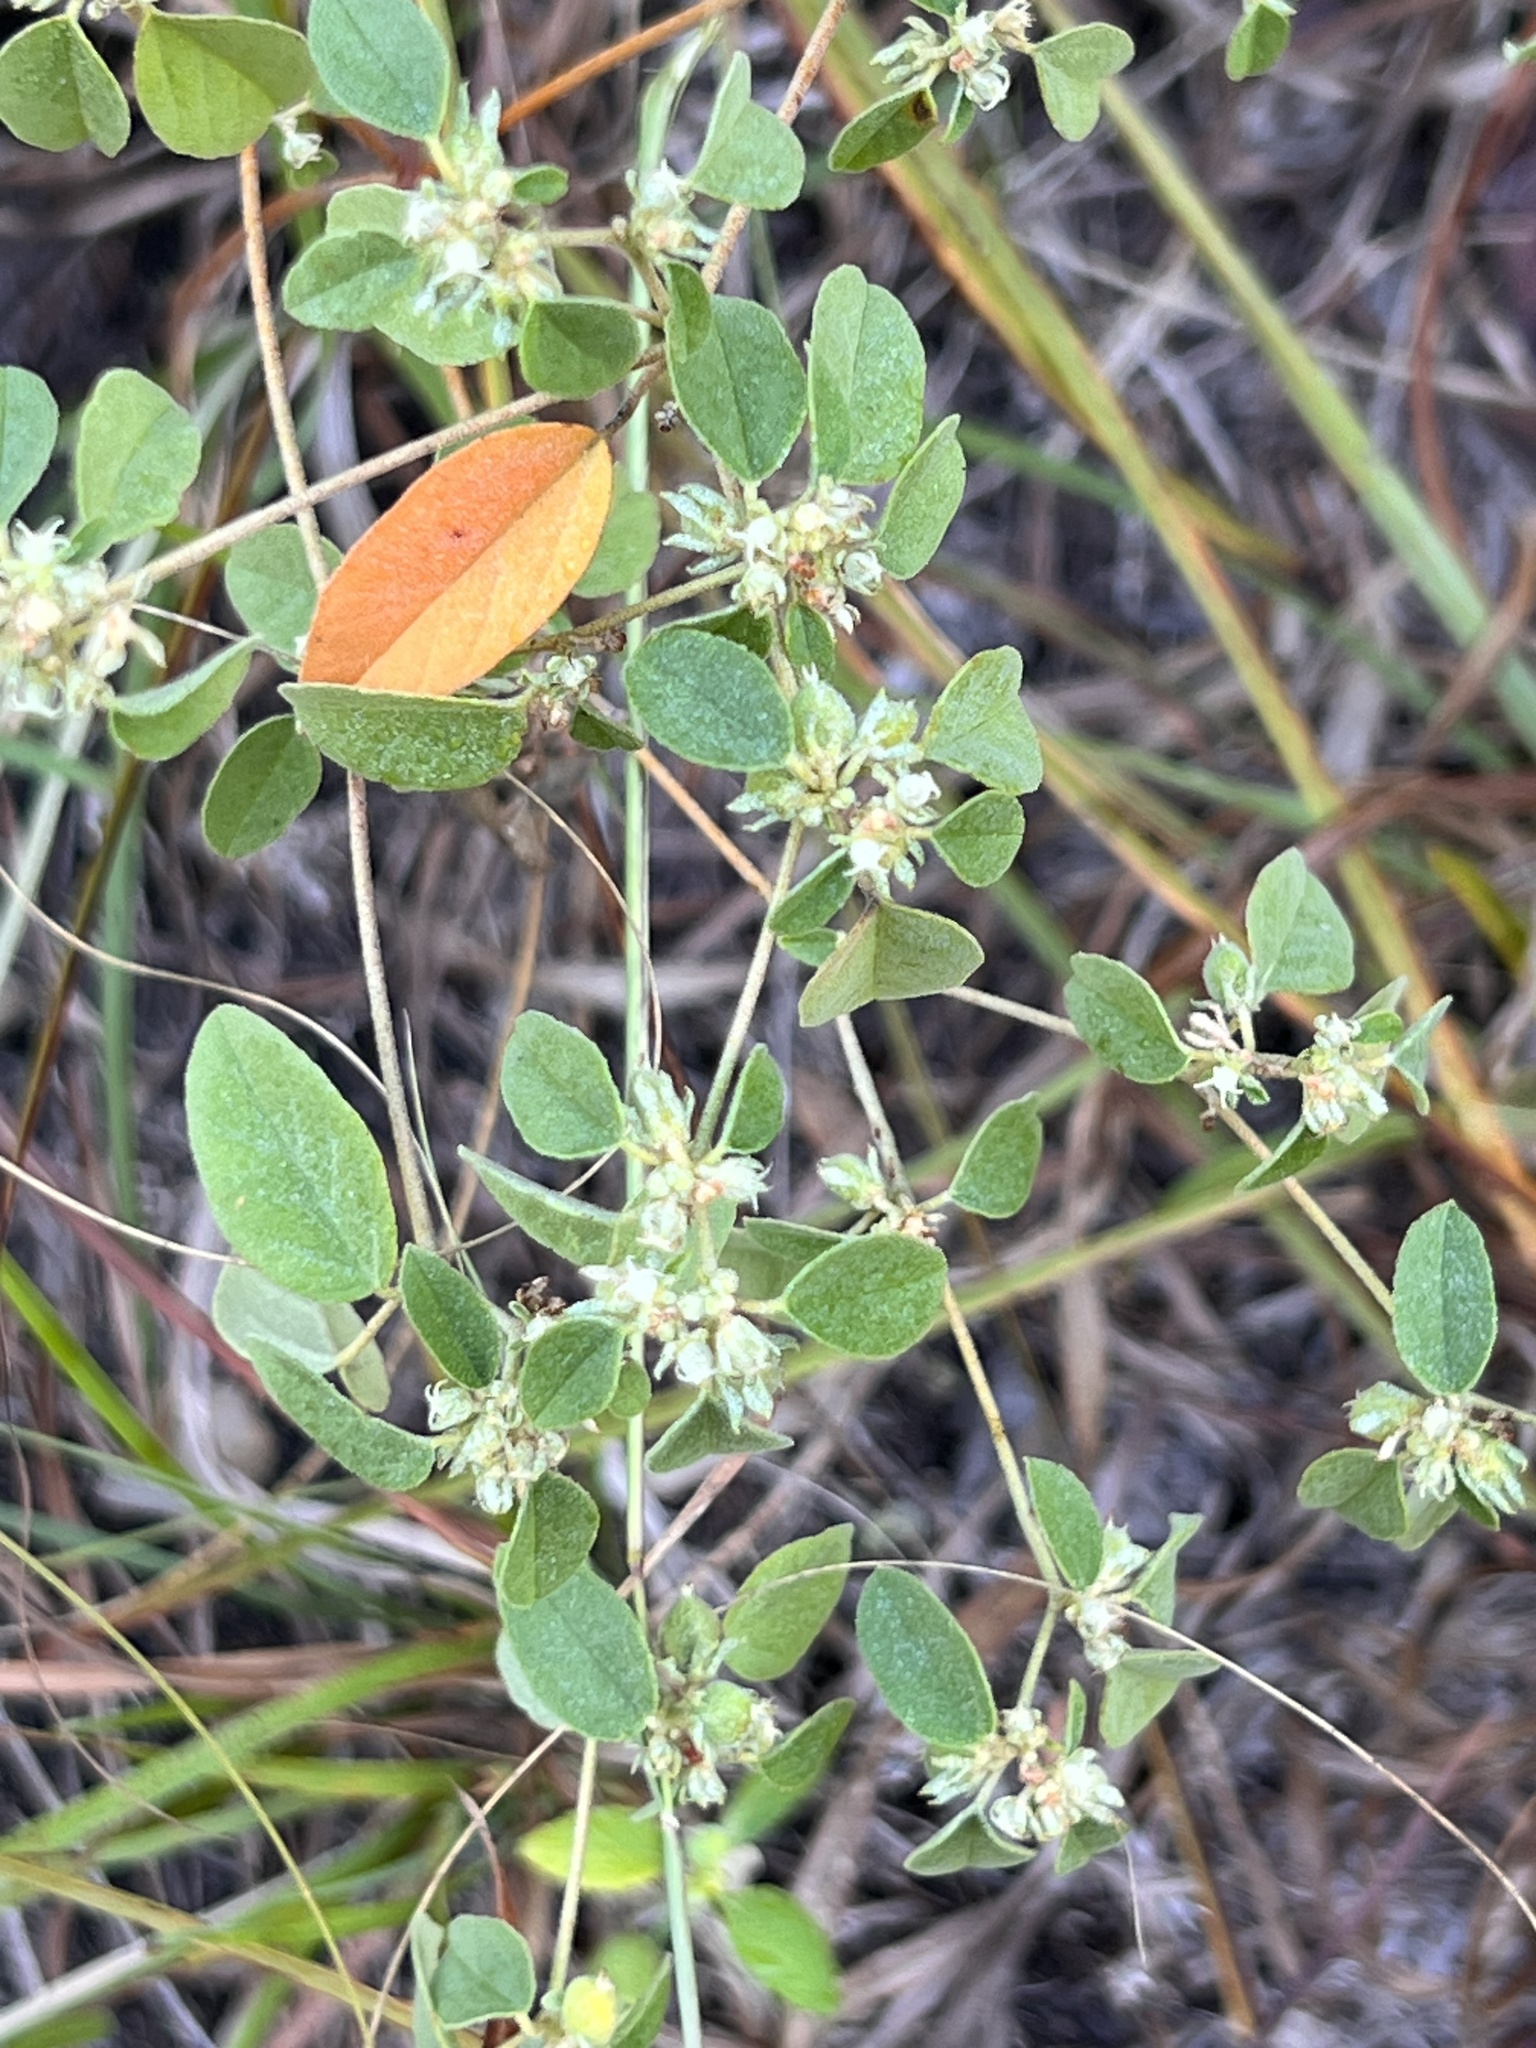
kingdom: Plantae
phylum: Tracheophyta
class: Magnoliopsida
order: Malpighiales
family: Euphorbiaceae
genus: Croton
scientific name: Croton monanthogynus
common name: One-seed croton
